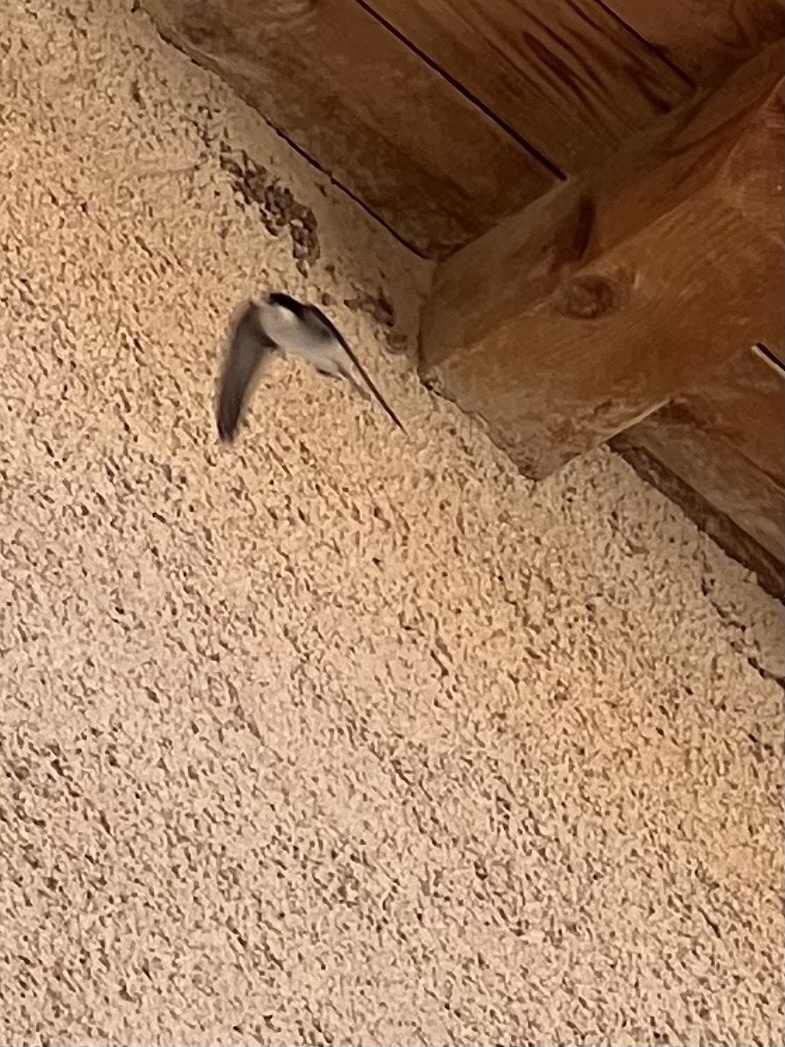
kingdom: Animalia
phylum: Chordata
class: Aves
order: Passeriformes
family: Hirundinidae
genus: Delichon
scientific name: Delichon urbicum
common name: Common house martin
